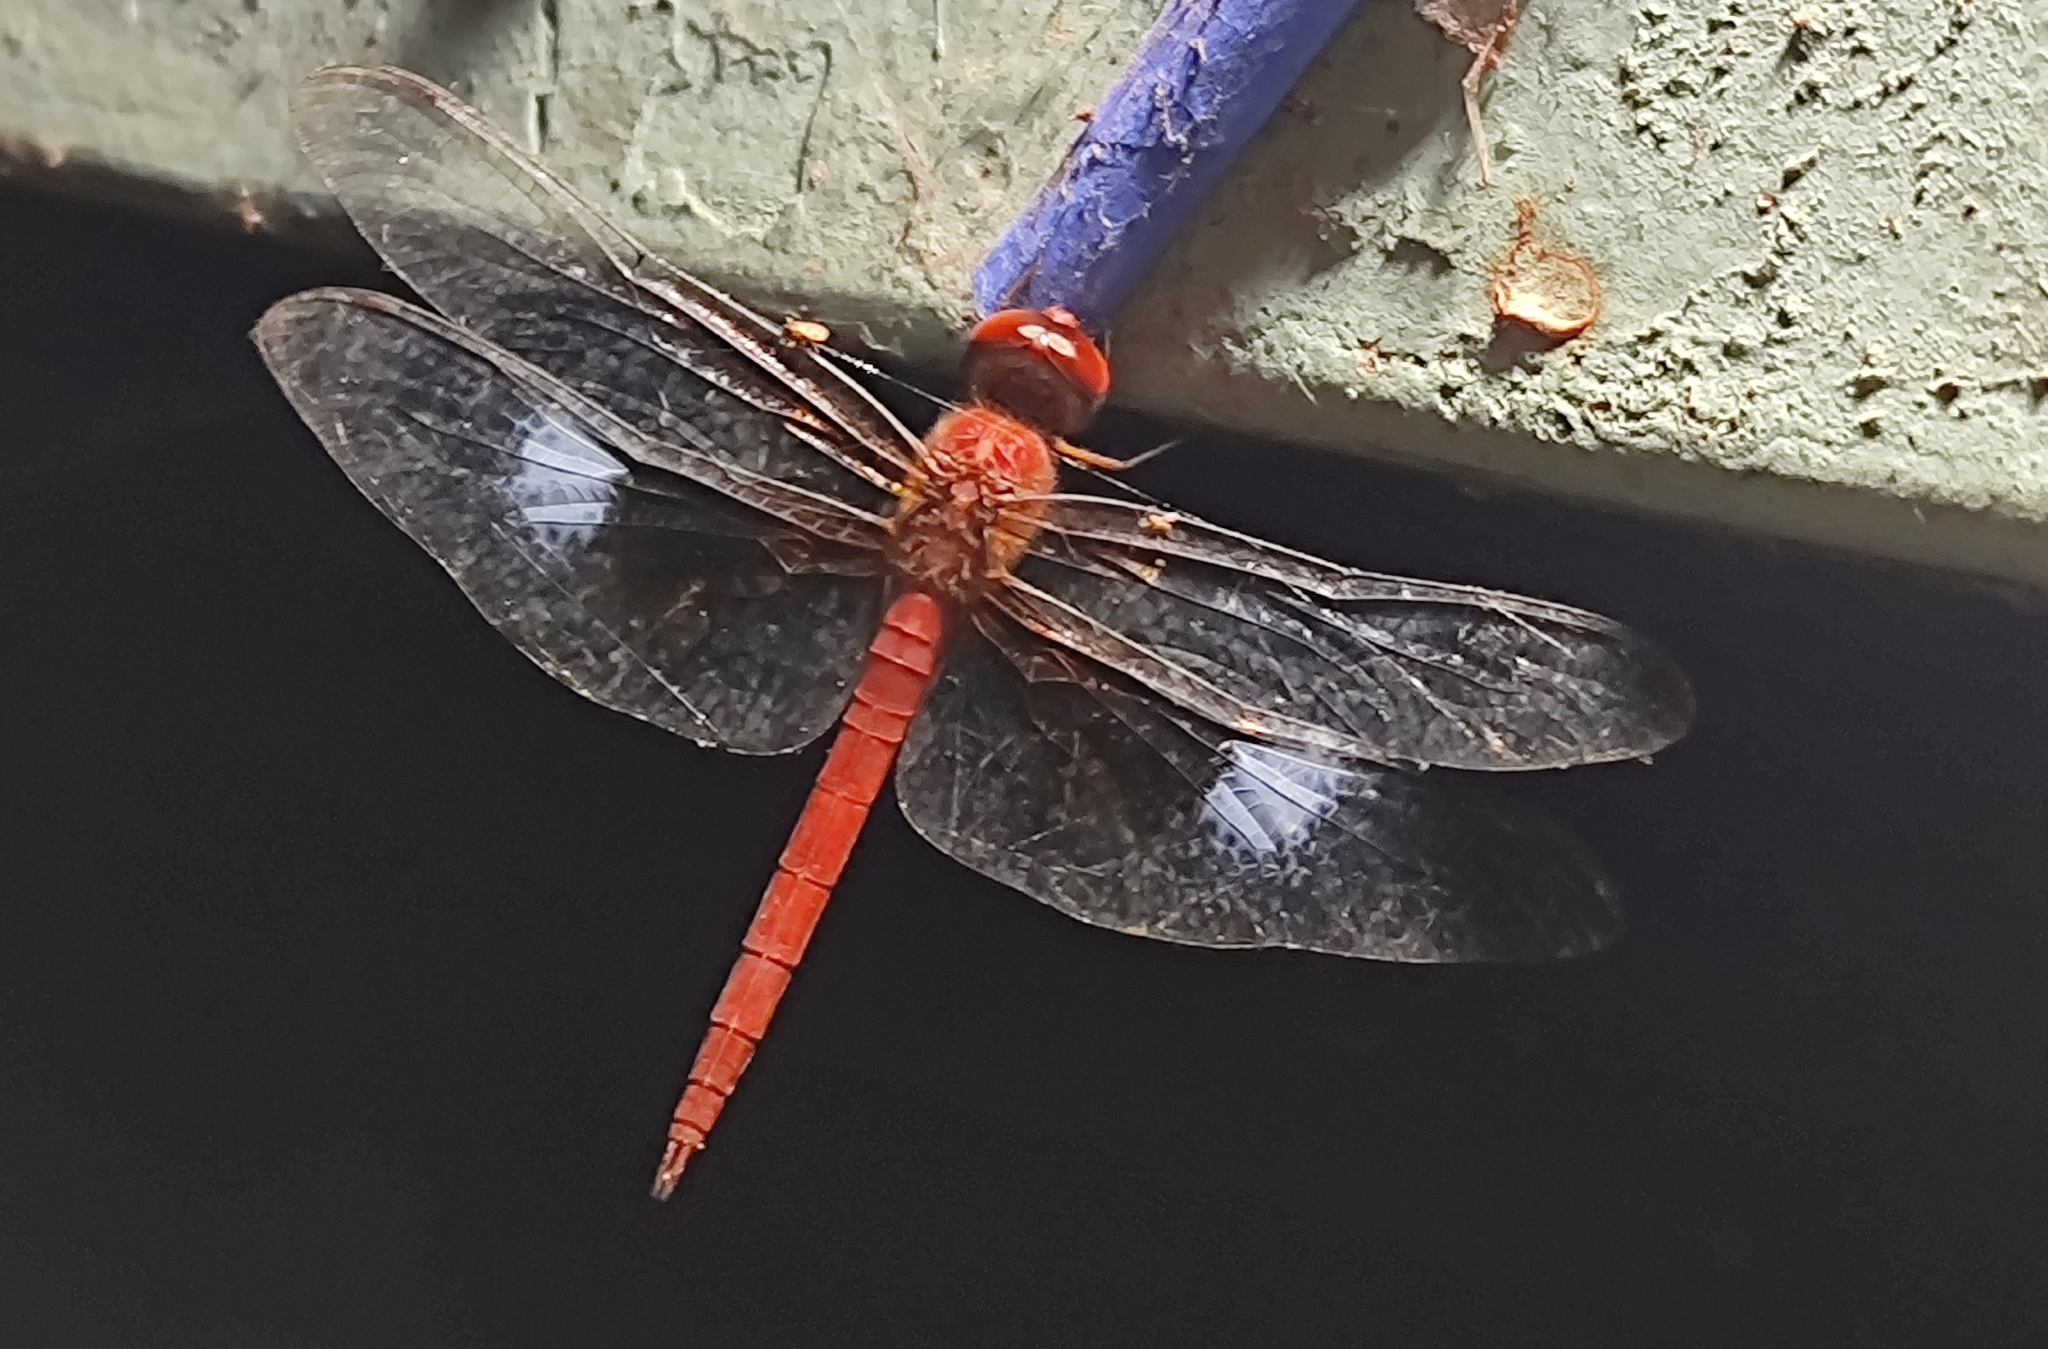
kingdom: Animalia
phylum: Arthropoda
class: Insecta
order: Odonata
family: Libellulidae
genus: Tholymis
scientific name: Tholymis tillarga
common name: Coral-tailed cloud wing
